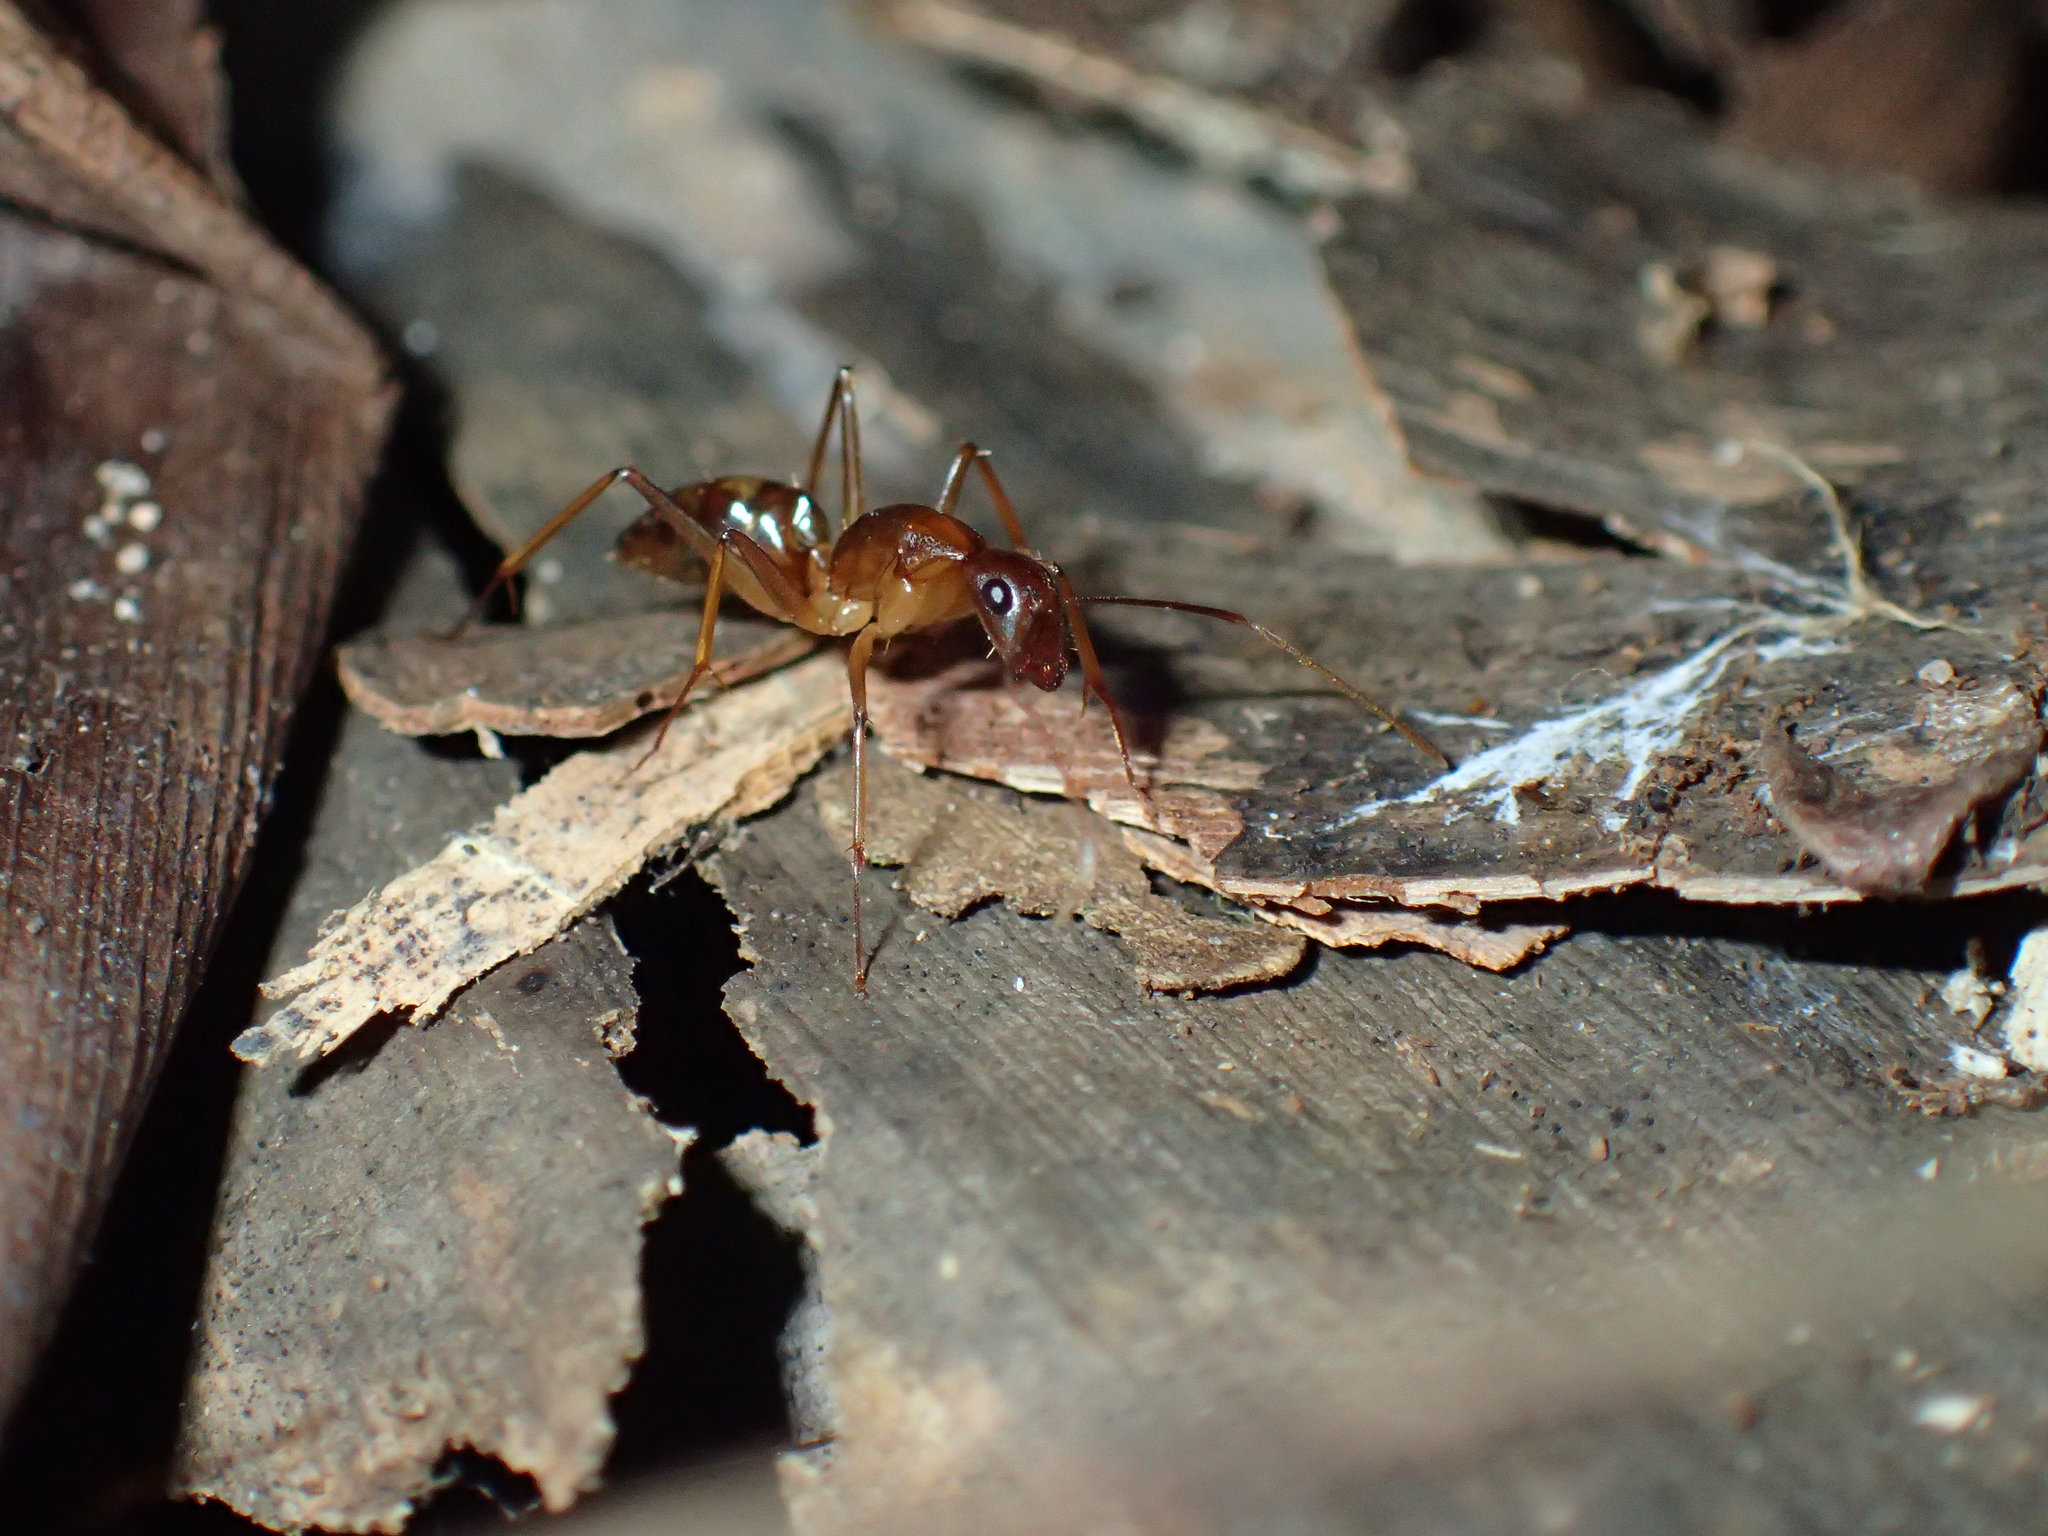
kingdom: Animalia
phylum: Arthropoda
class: Insecta
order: Hymenoptera
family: Formicidae
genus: Camponotus
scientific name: Camponotus sexpunctatus
